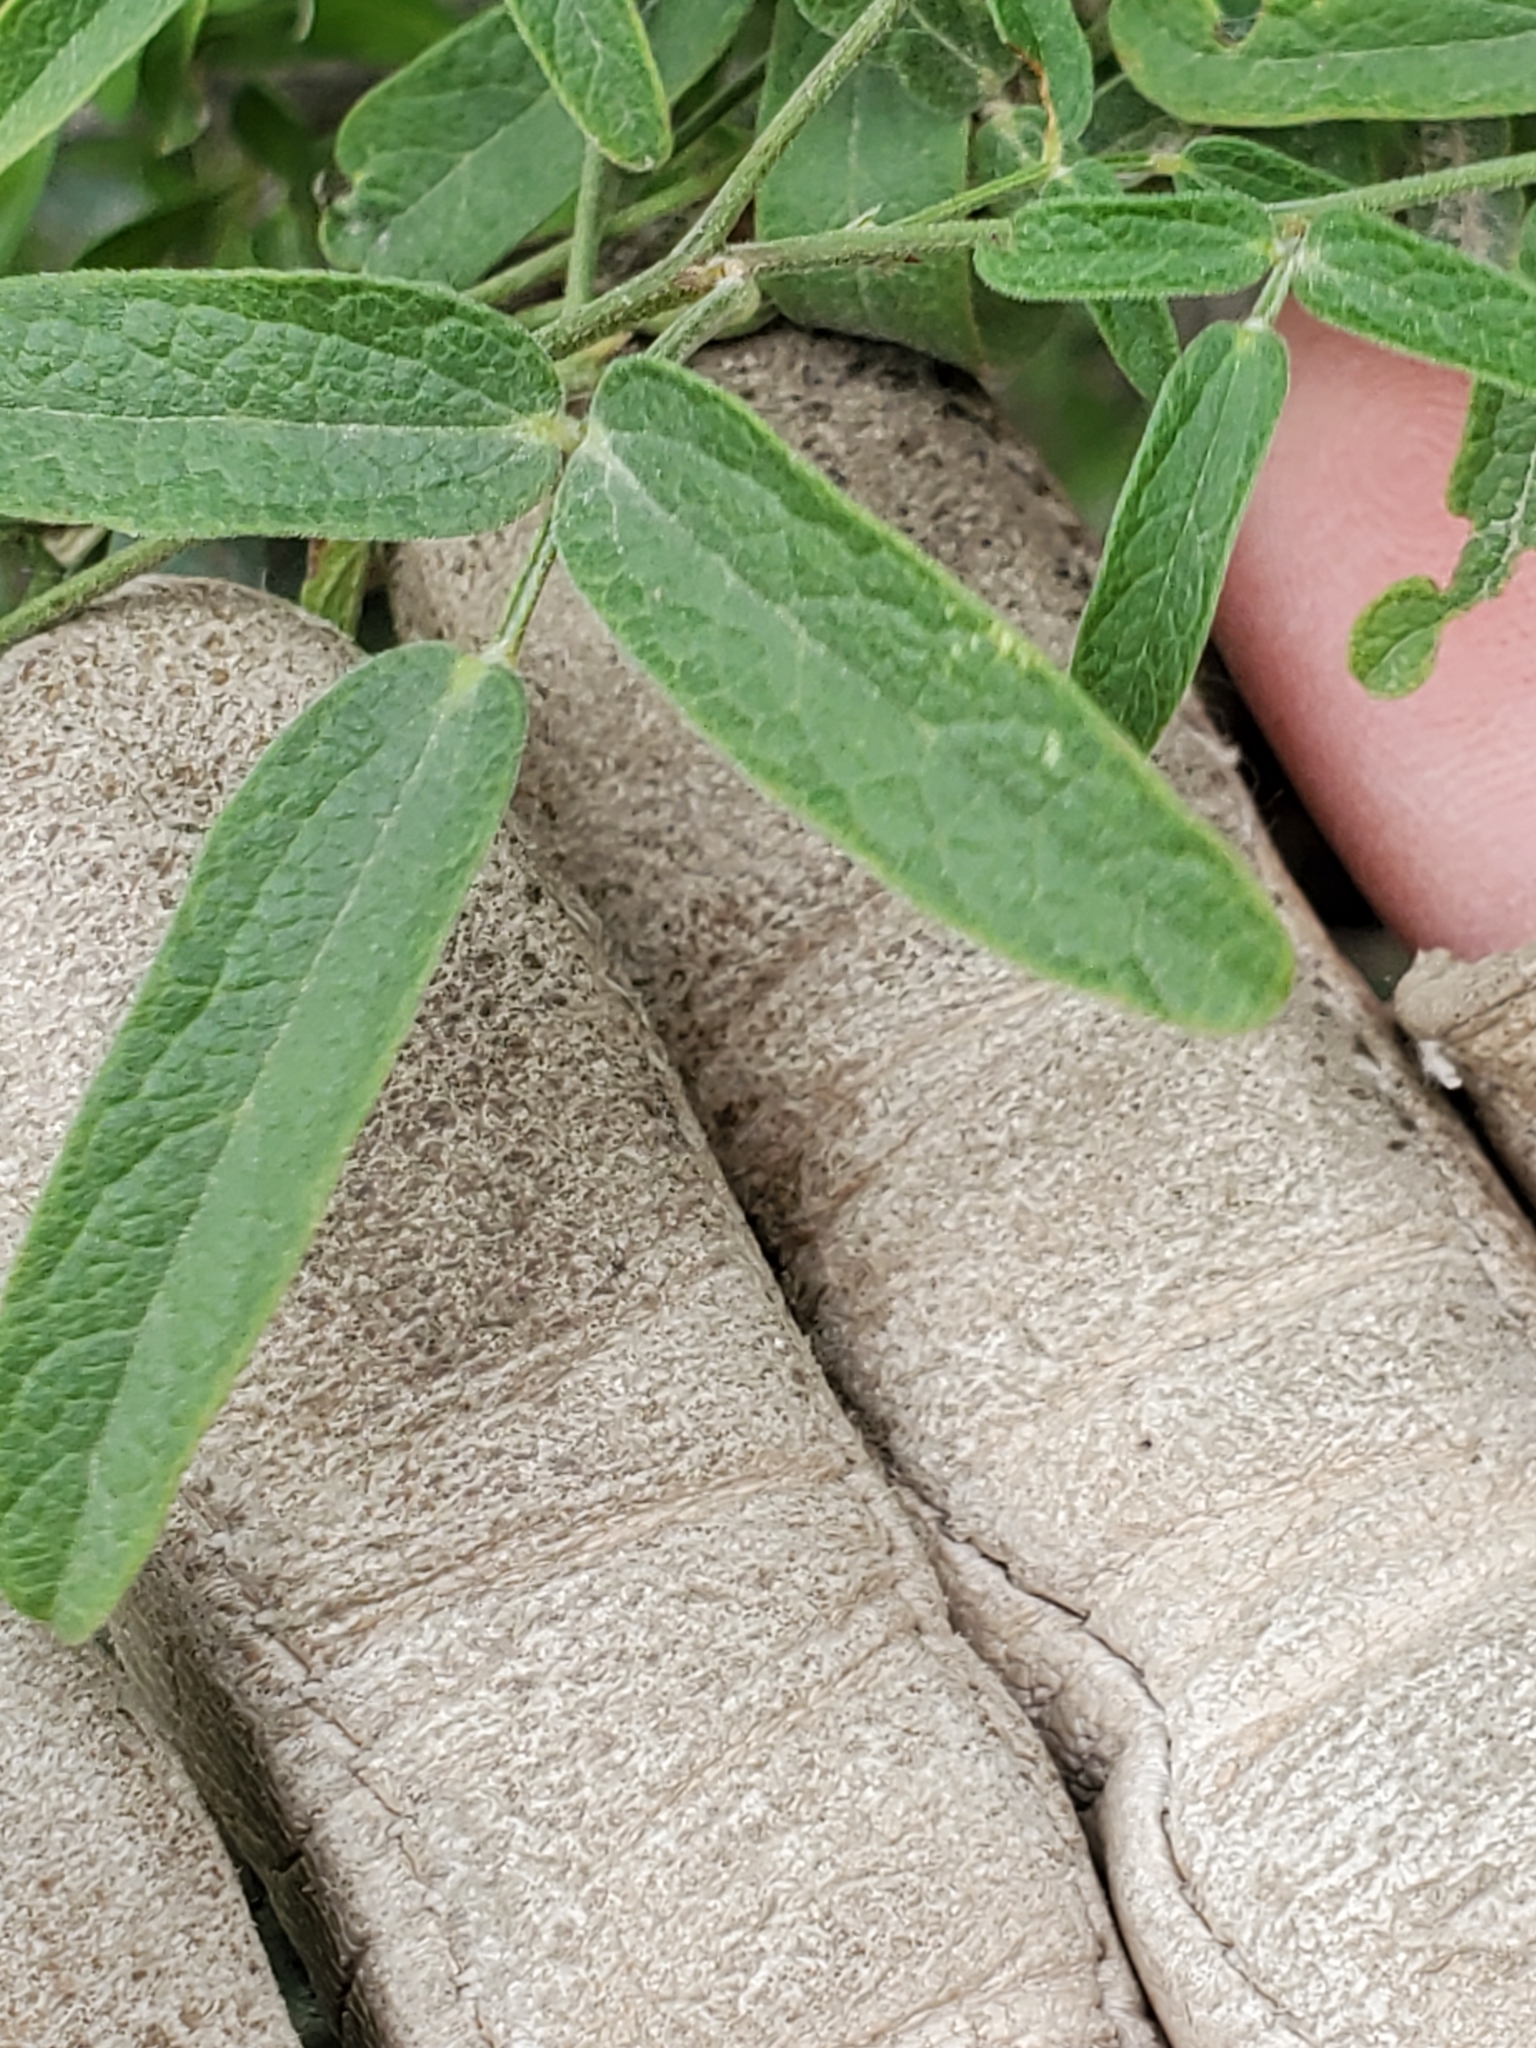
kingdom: Plantae
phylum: Tracheophyta
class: Magnoliopsida
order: Fabales
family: Fabaceae
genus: Rhynchosia
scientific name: Rhynchosia senna
